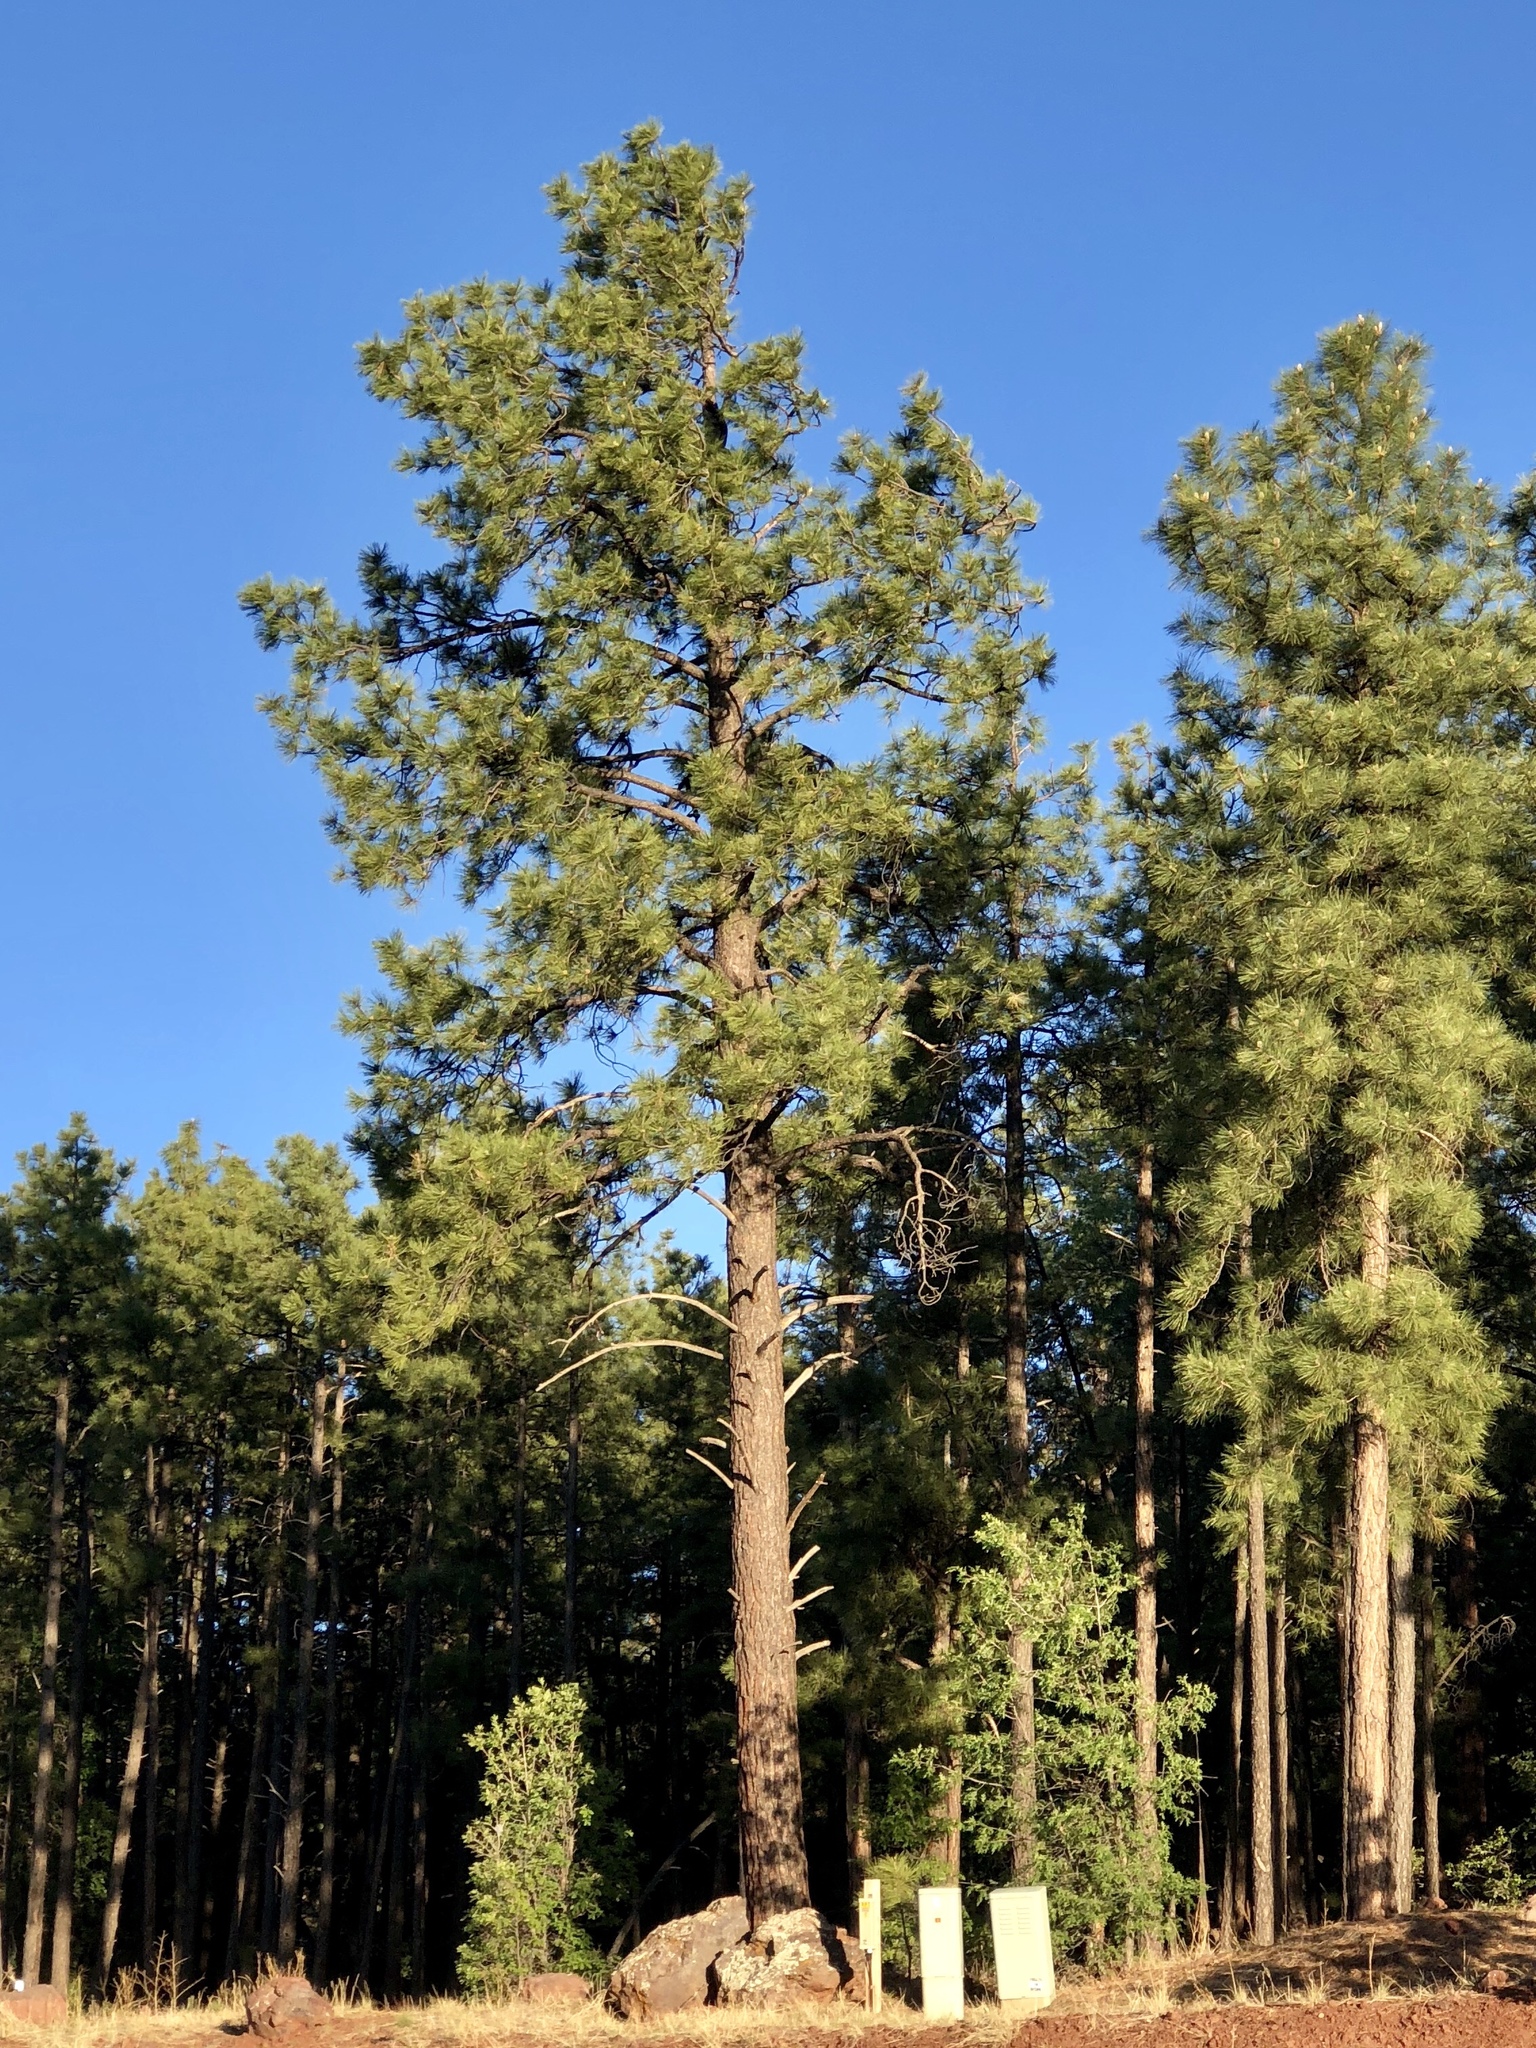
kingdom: Plantae
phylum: Tracheophyta
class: Pinopsida
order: Pinales
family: Pinaceae
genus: Pinus
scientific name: Pinus ponderosa
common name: Western yellow-pine
